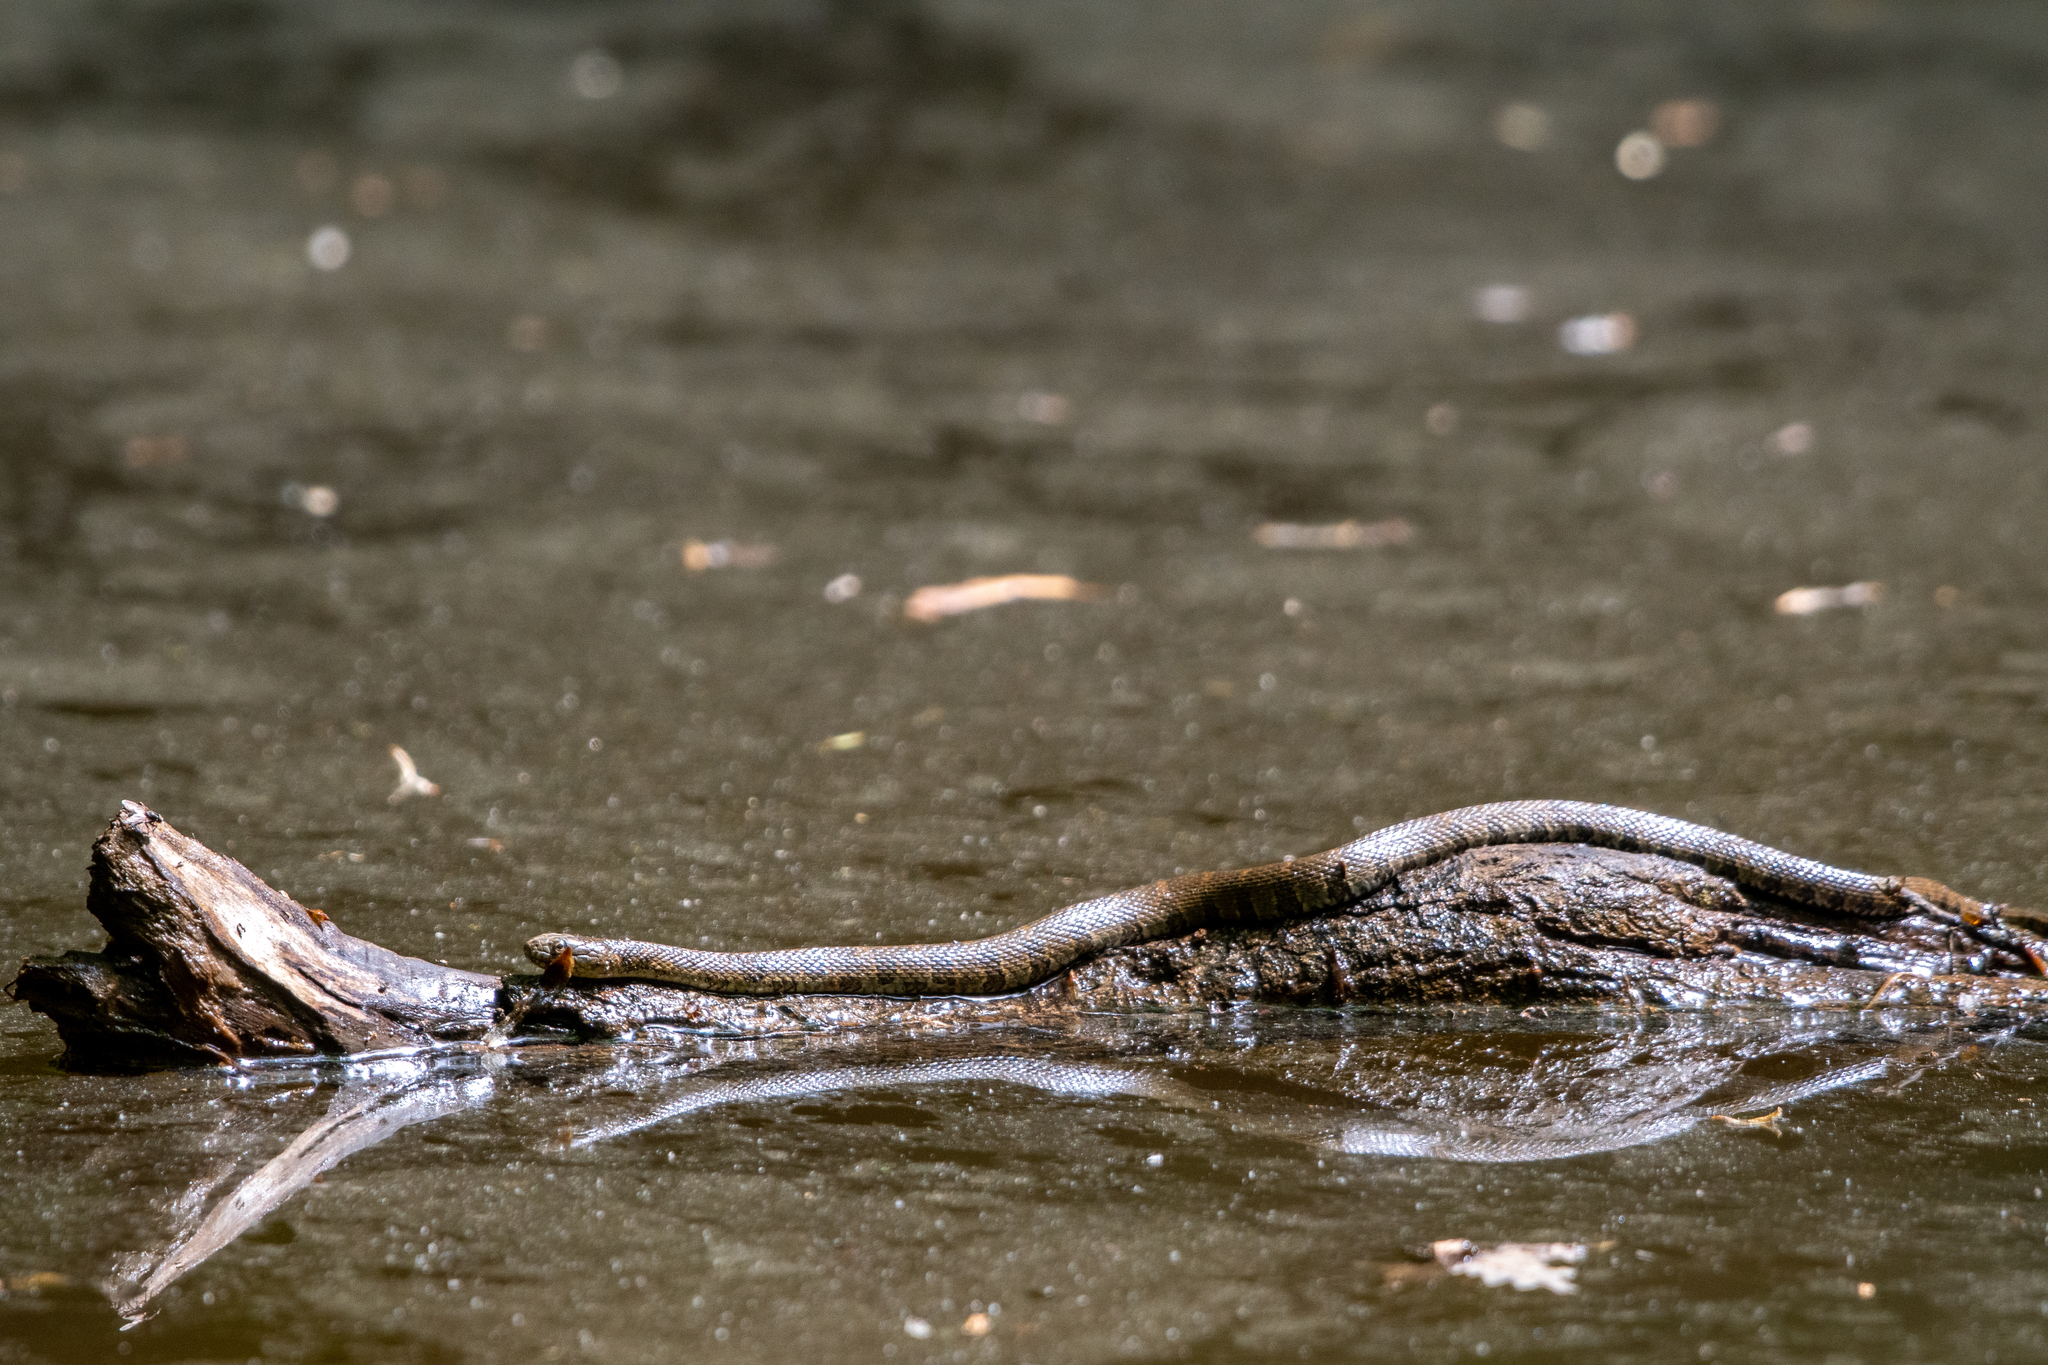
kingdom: Animalia
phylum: Chordata
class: Squamata
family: Colubridae
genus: Nerodia
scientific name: Nerodia sipedon
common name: Northern water snake
